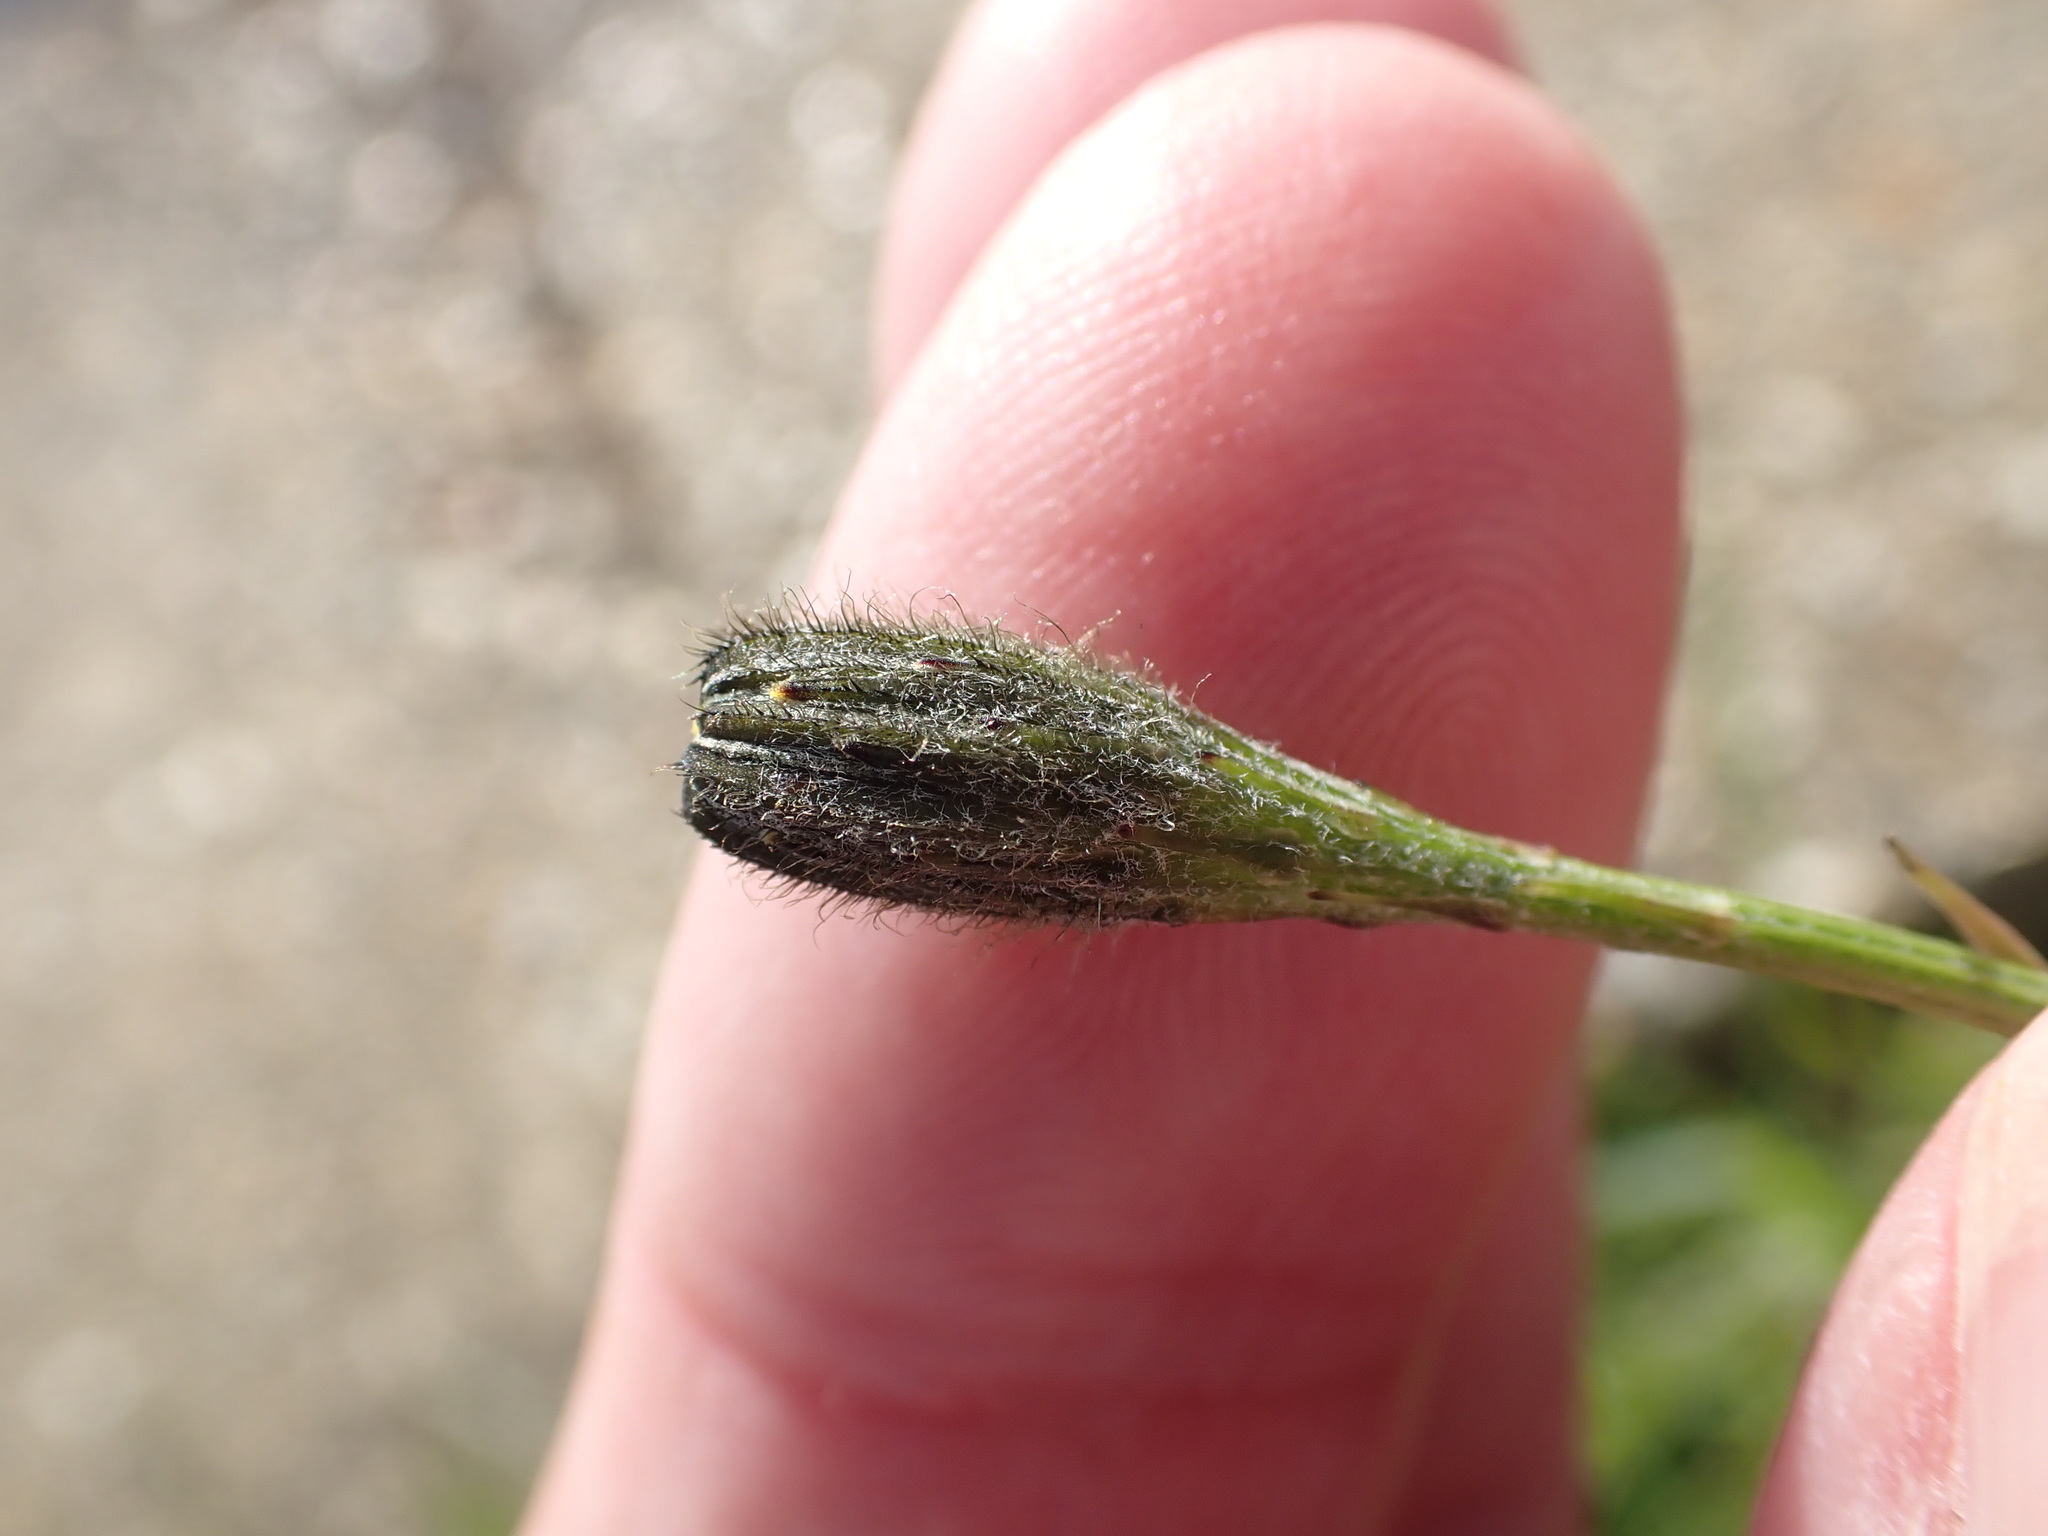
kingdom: Plantae
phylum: Tracheophyta
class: Magnoliopsida
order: Asterales
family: Asteraceae
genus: Leontodon
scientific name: Leontodon hispidus
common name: Rough hawkbit
